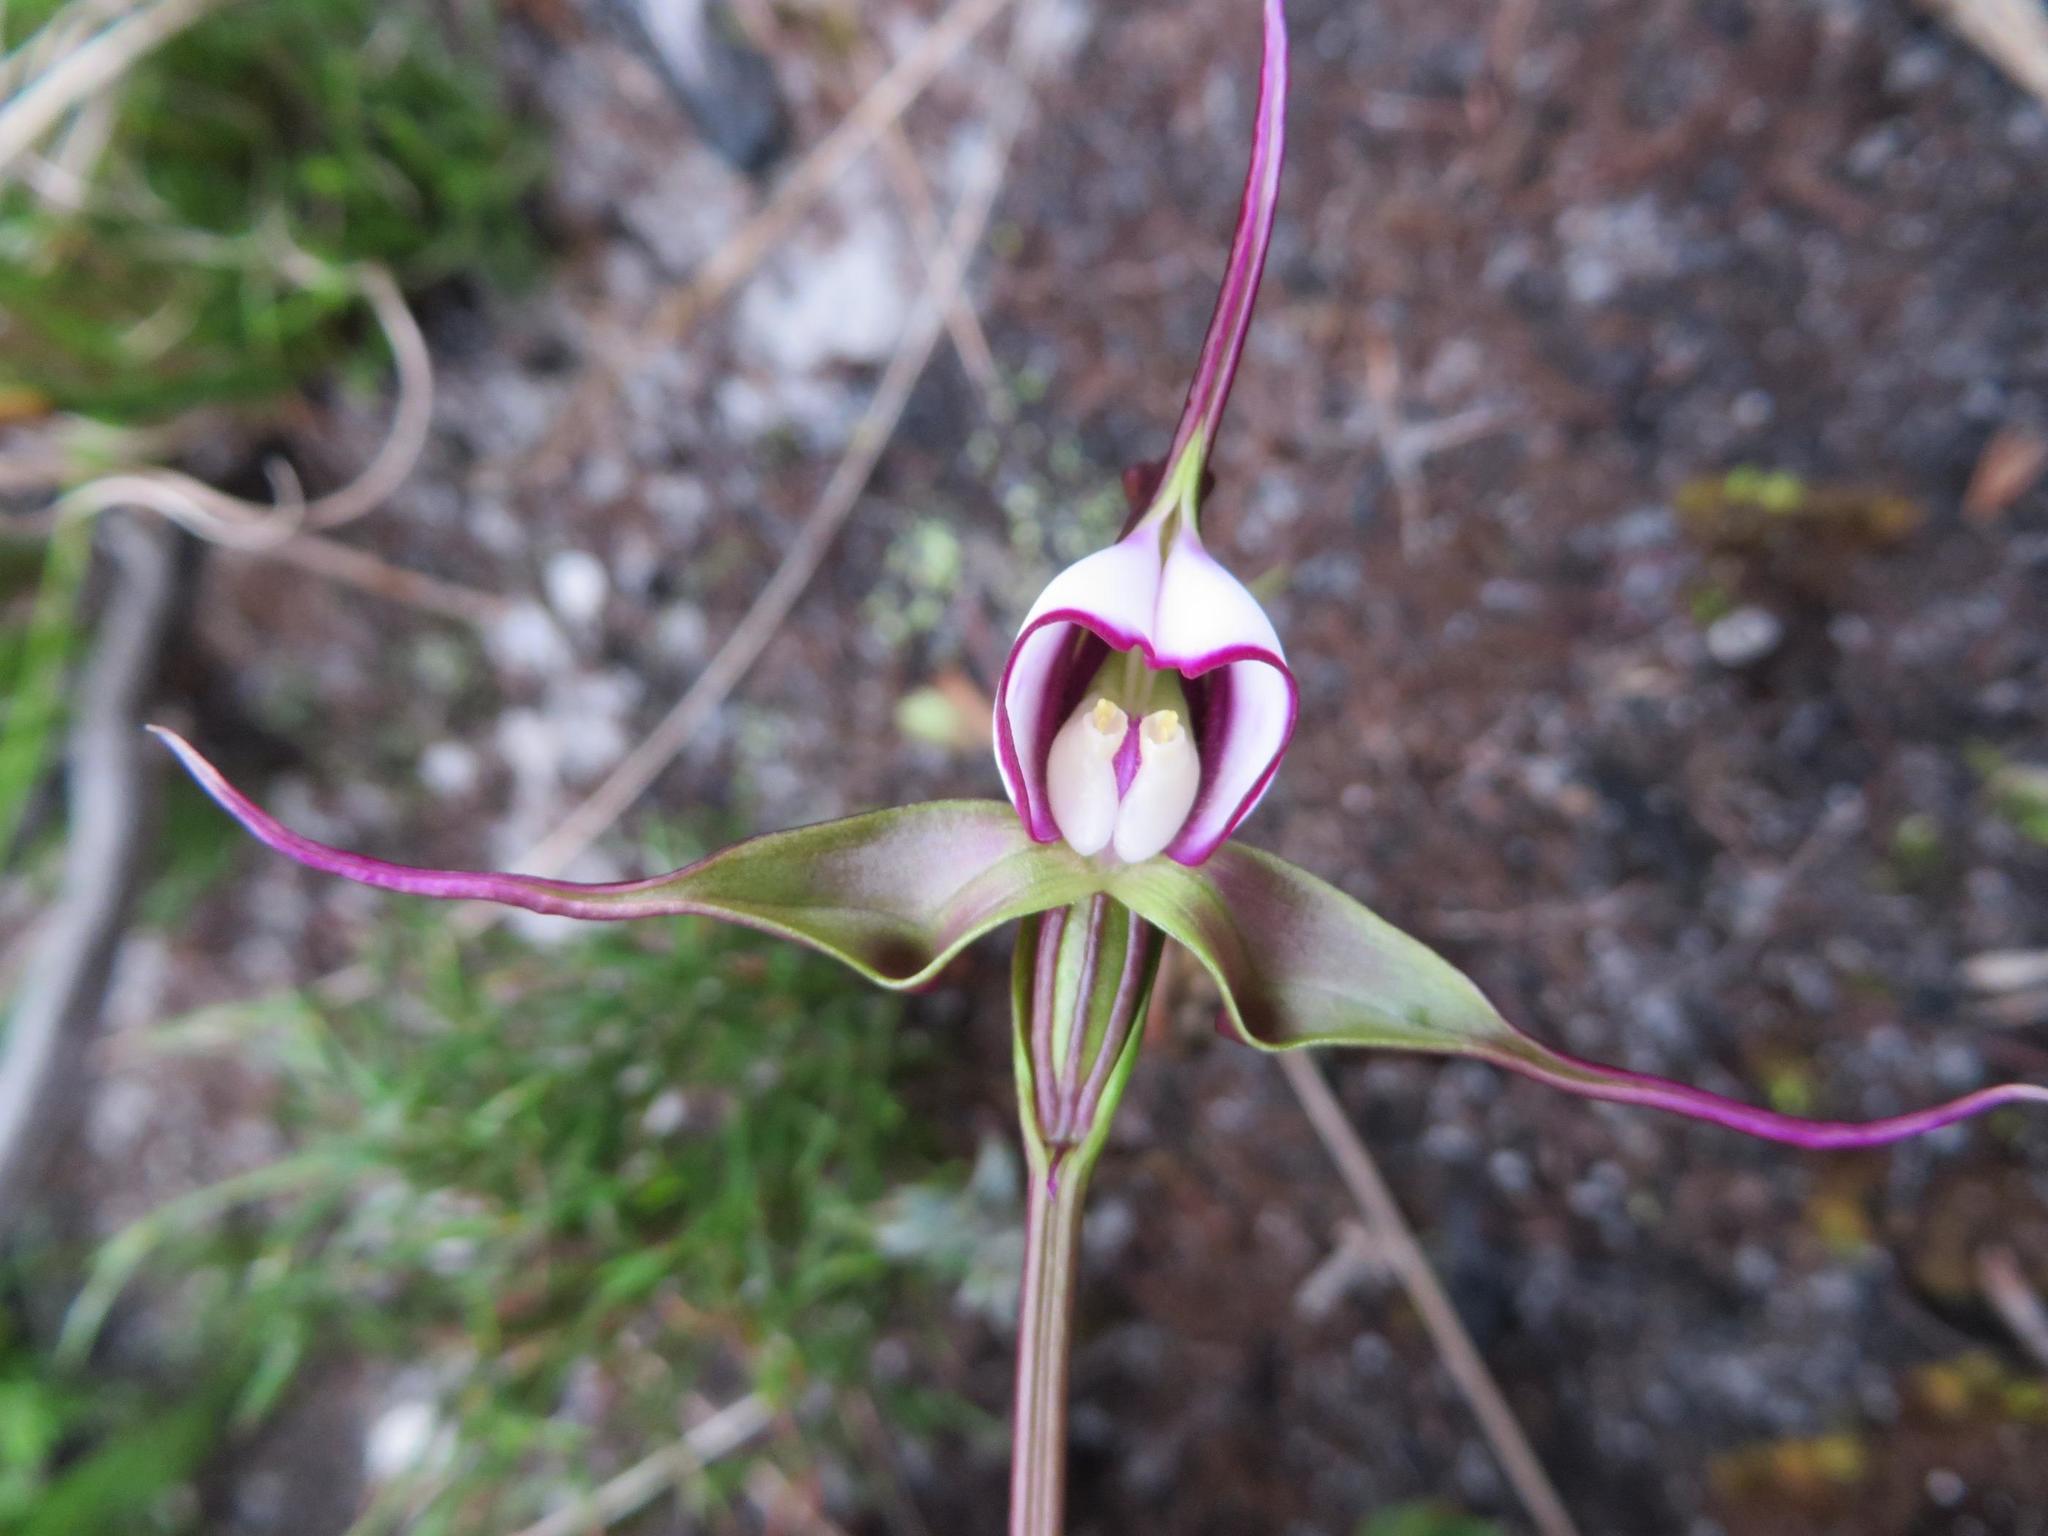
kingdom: Plantae
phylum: Tracheophyta
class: Liliopsida
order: Asparagales
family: Orchidaceae
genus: Disperis
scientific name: Disperis capensis
